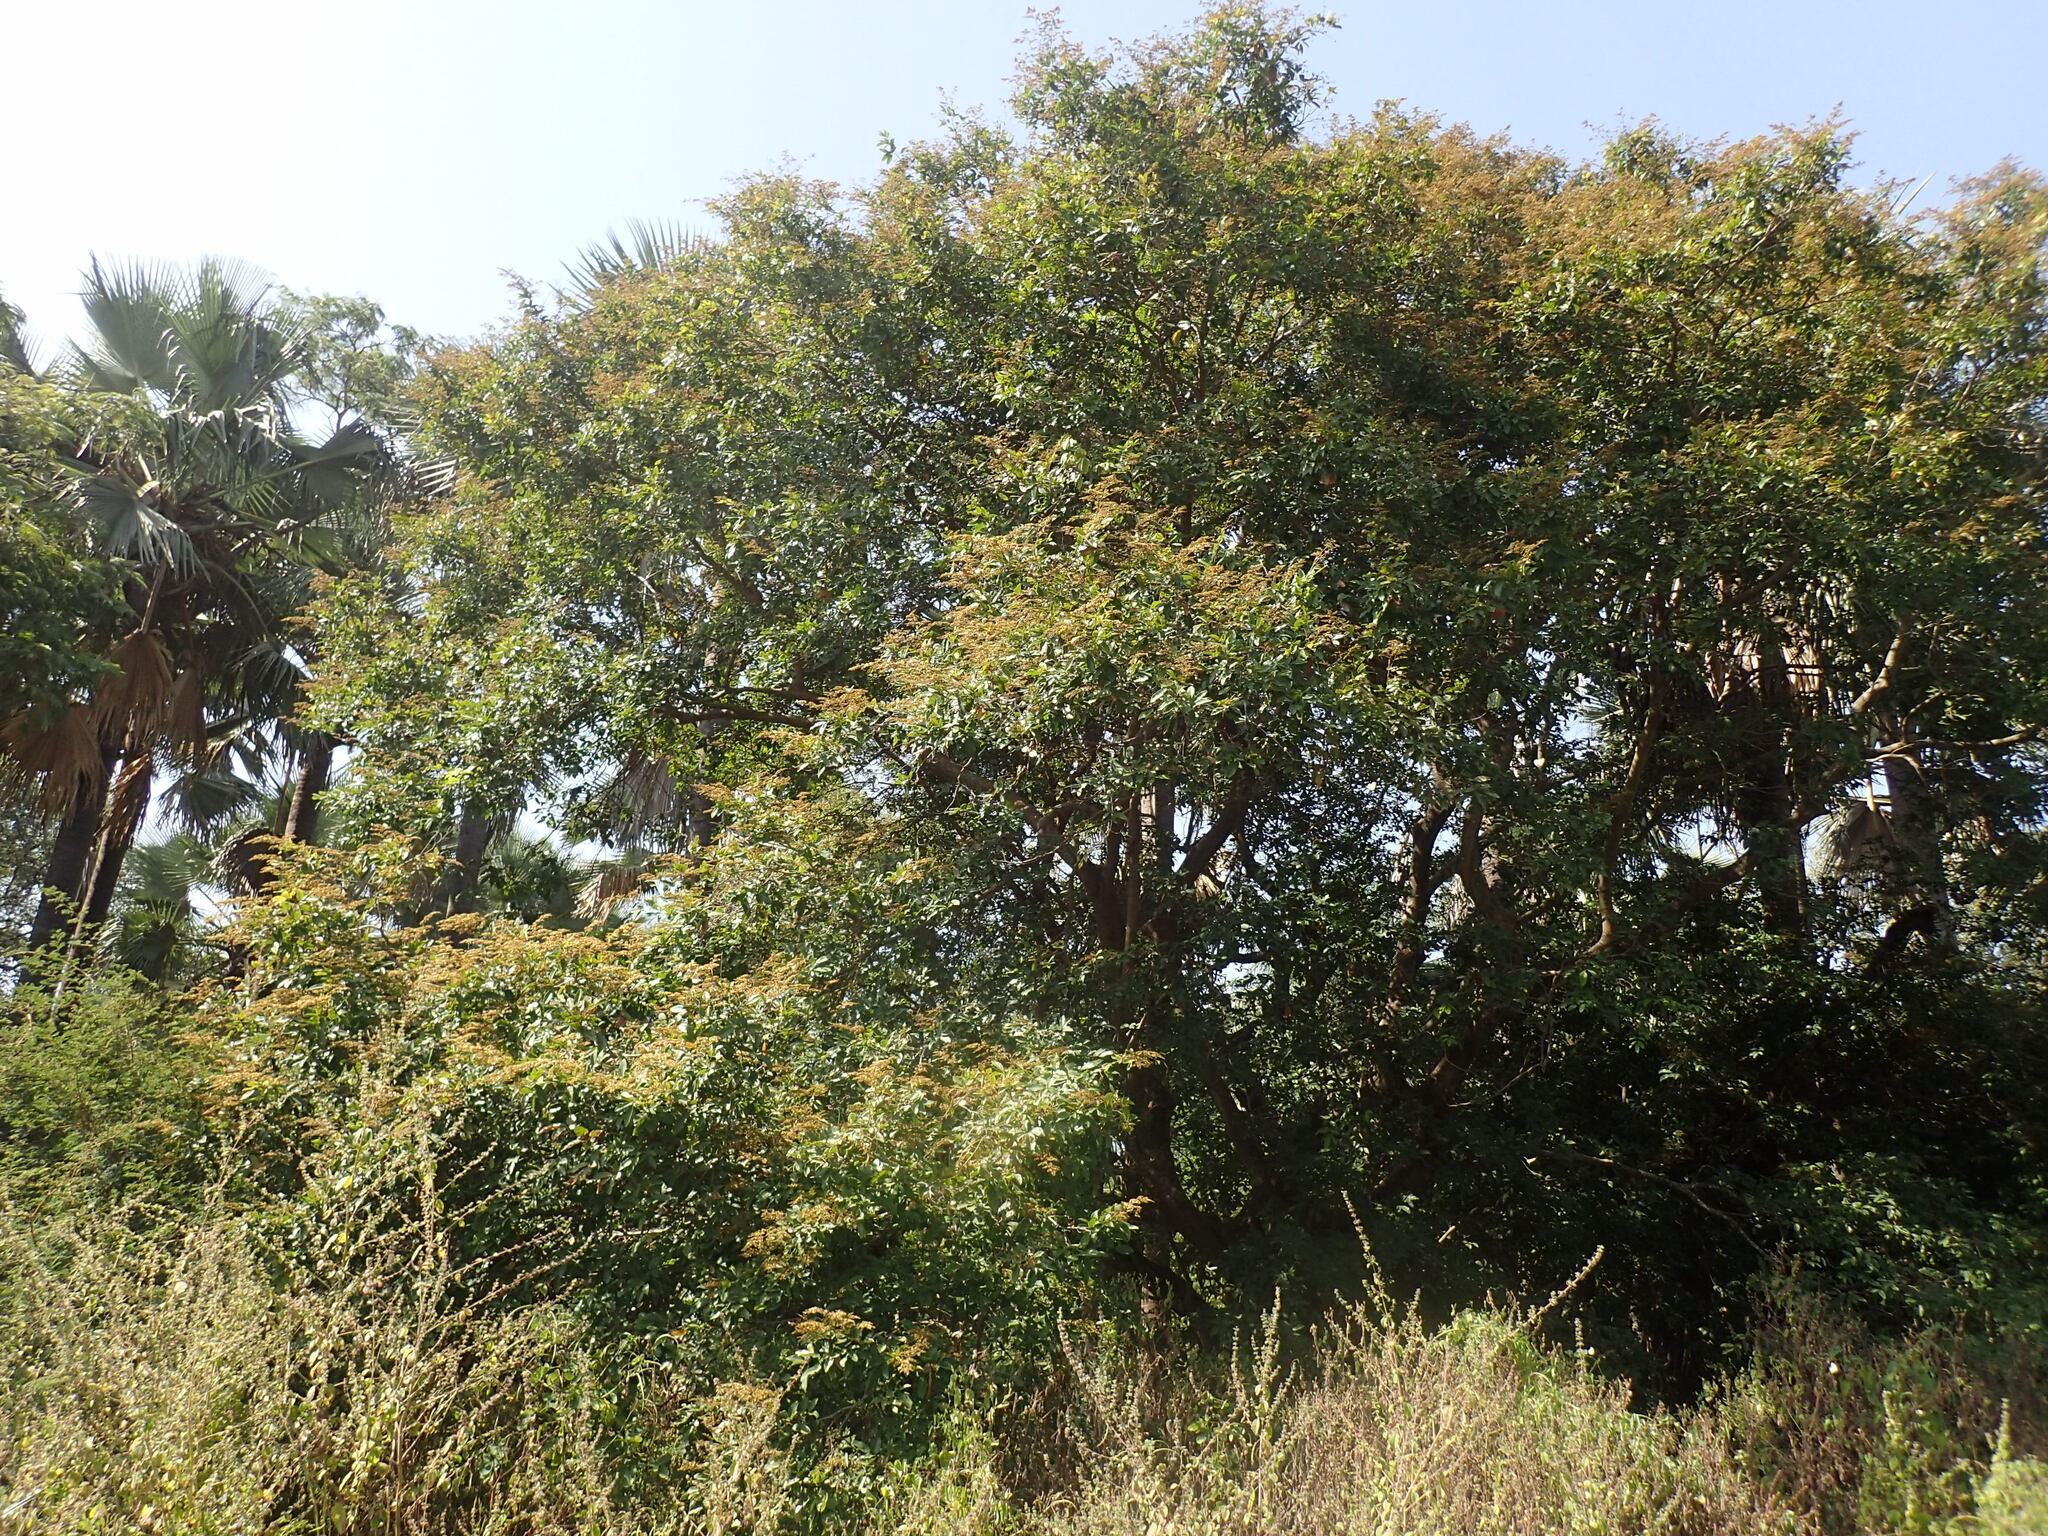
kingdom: Plantae
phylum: Tracheophyta
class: Magnoliopsida
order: Fabales
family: Fabaceae
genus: Dialium
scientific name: Dialium guineense
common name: Sierra leone-tamarind
